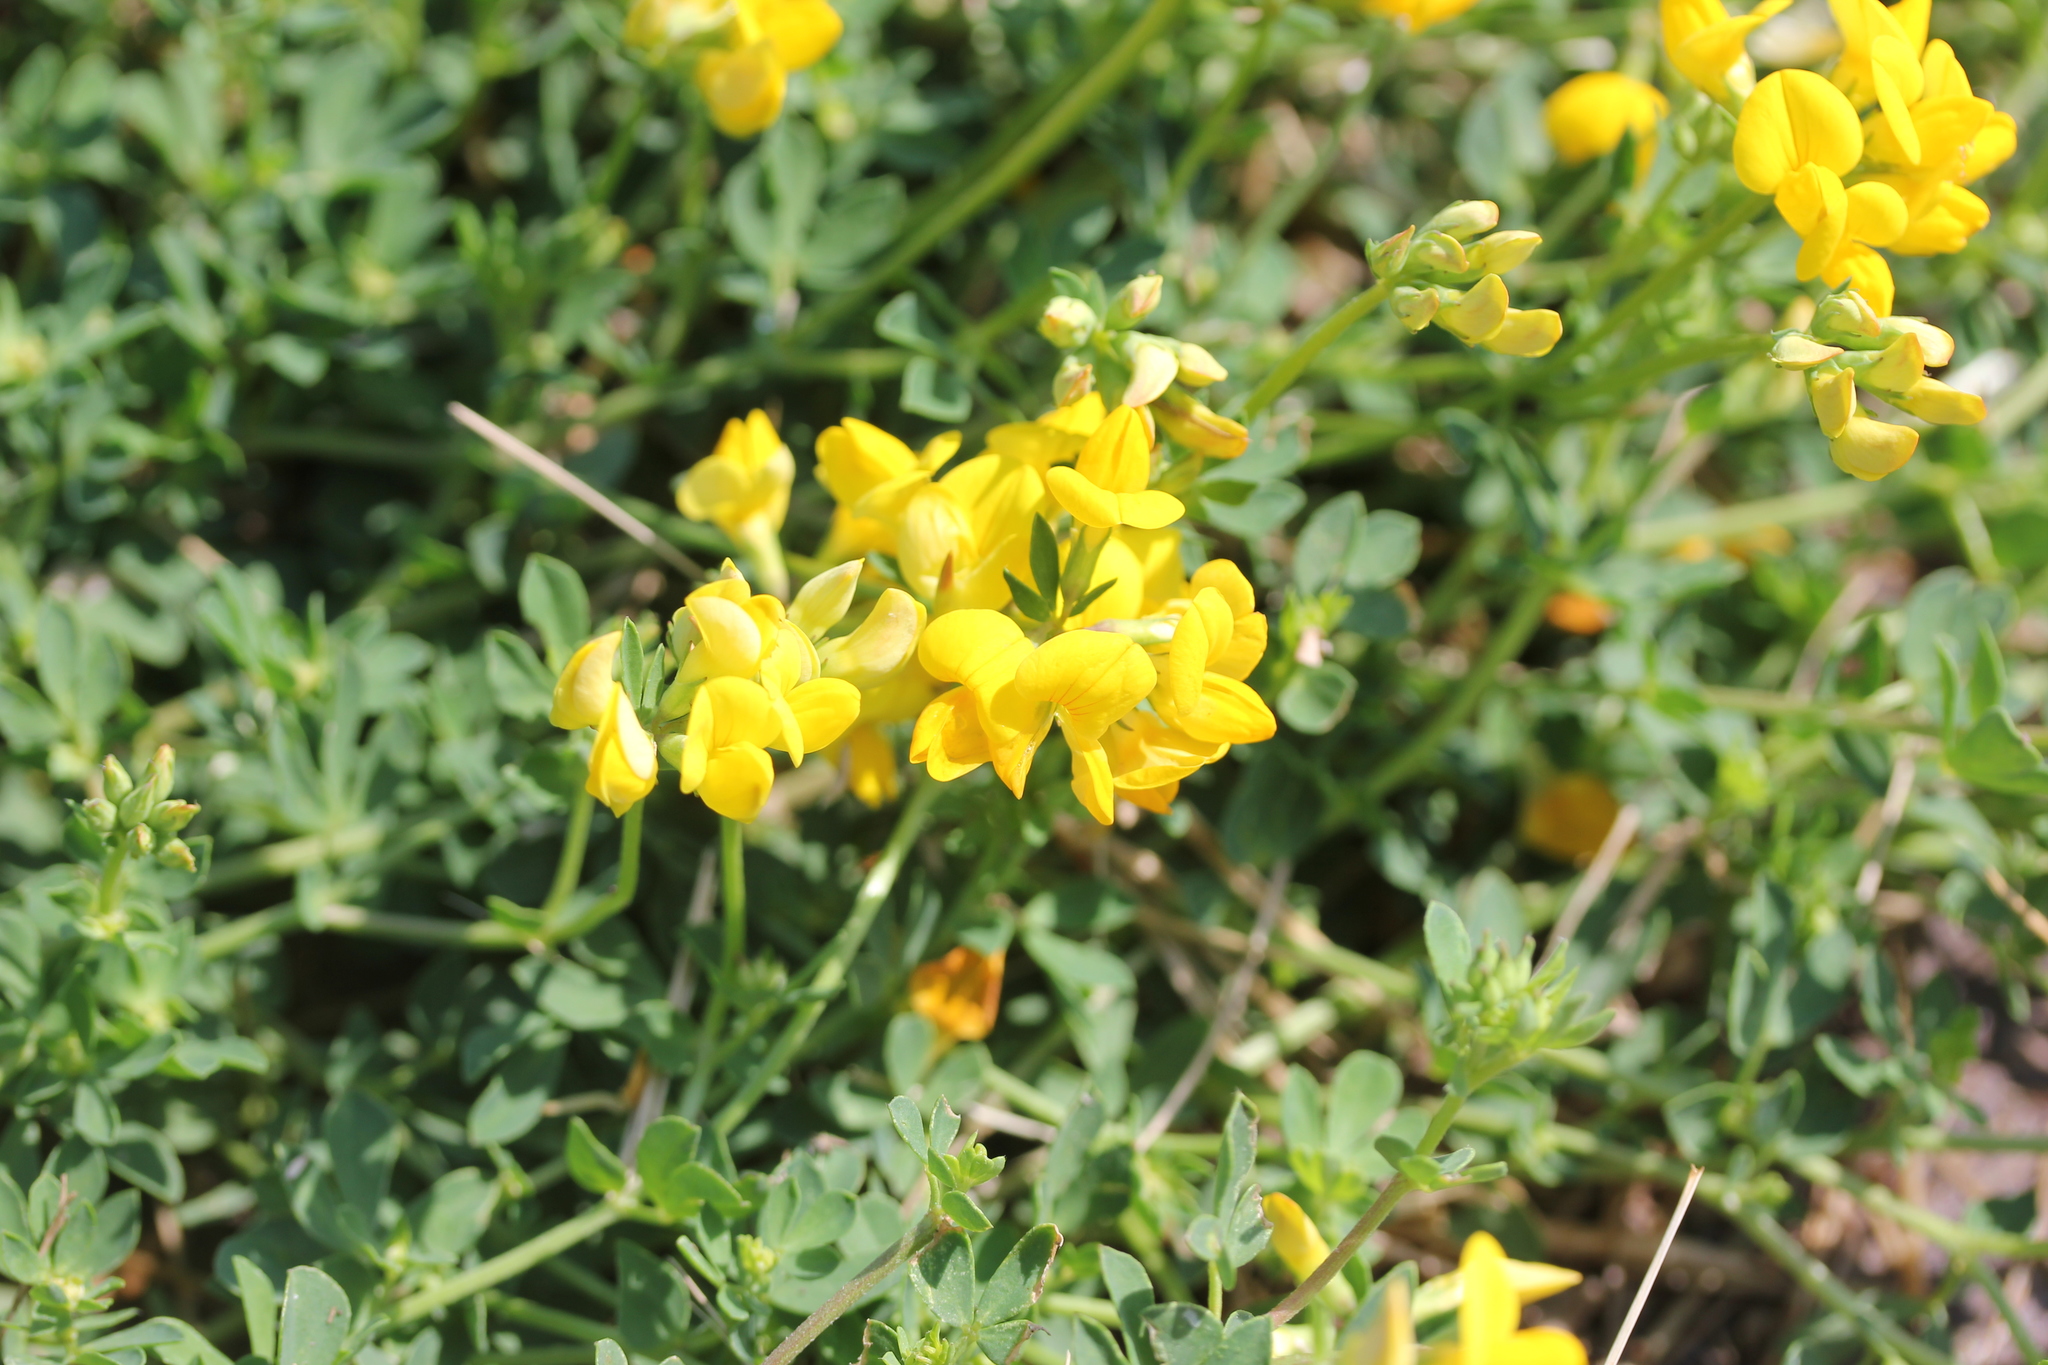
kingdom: Plantae
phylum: Tracheophyta
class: Magnoliopsida
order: Fabales
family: Fabaceae
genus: Lotus
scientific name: Lotus corniculatus
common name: Common bird's-foot-trefoil
